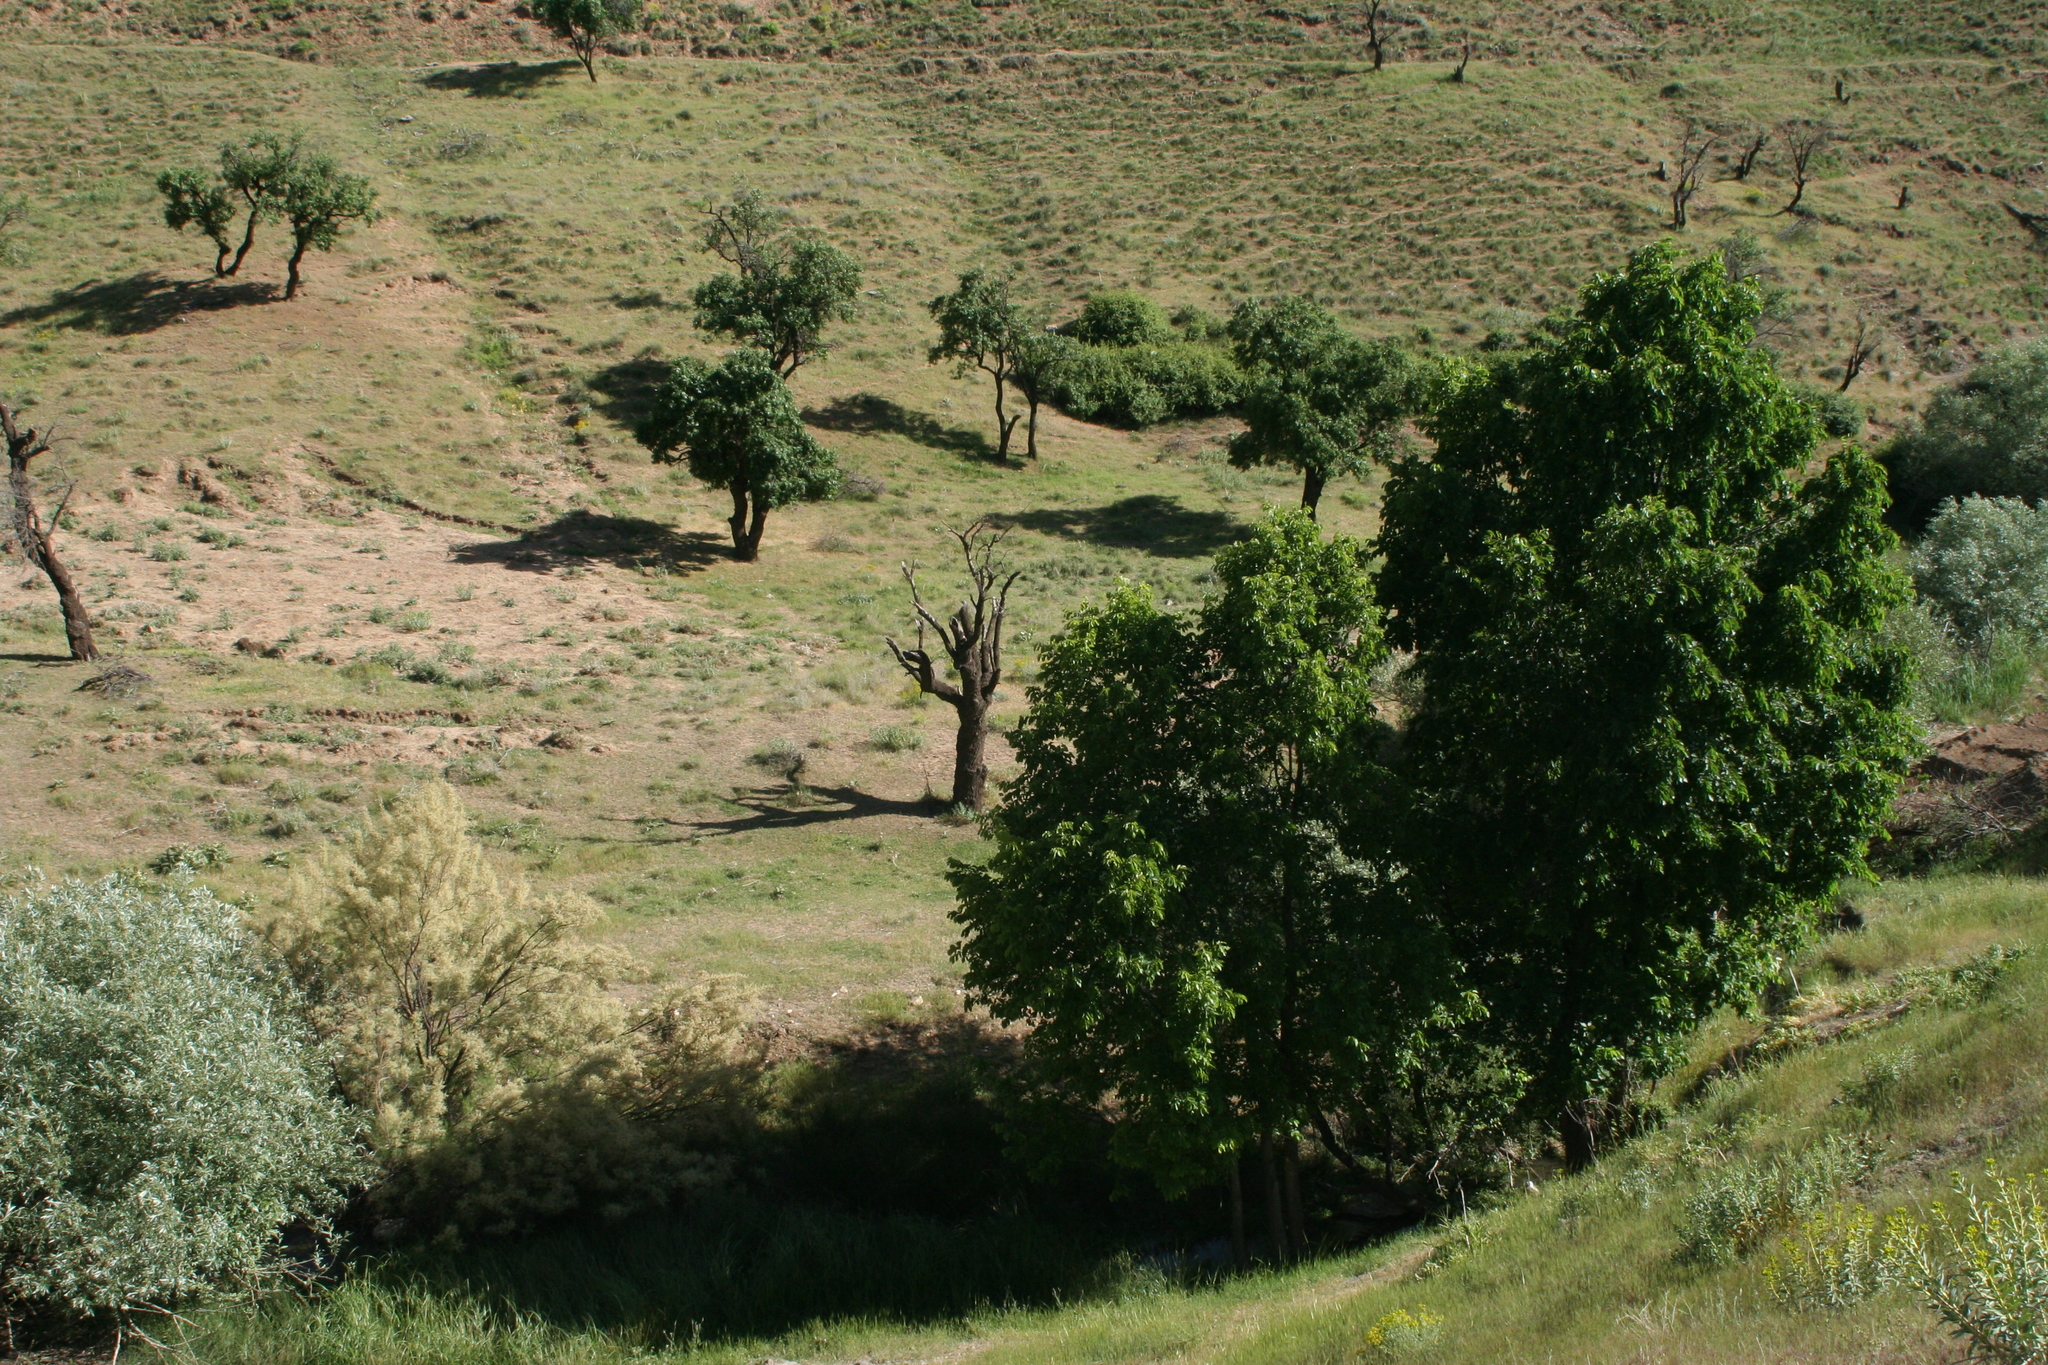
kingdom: Plantae
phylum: Tracheophyta
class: Magnoliopsida
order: Rosales
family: Ulmaceae
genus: Ulmus
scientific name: Ulmus minor
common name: Small-leaved elm
